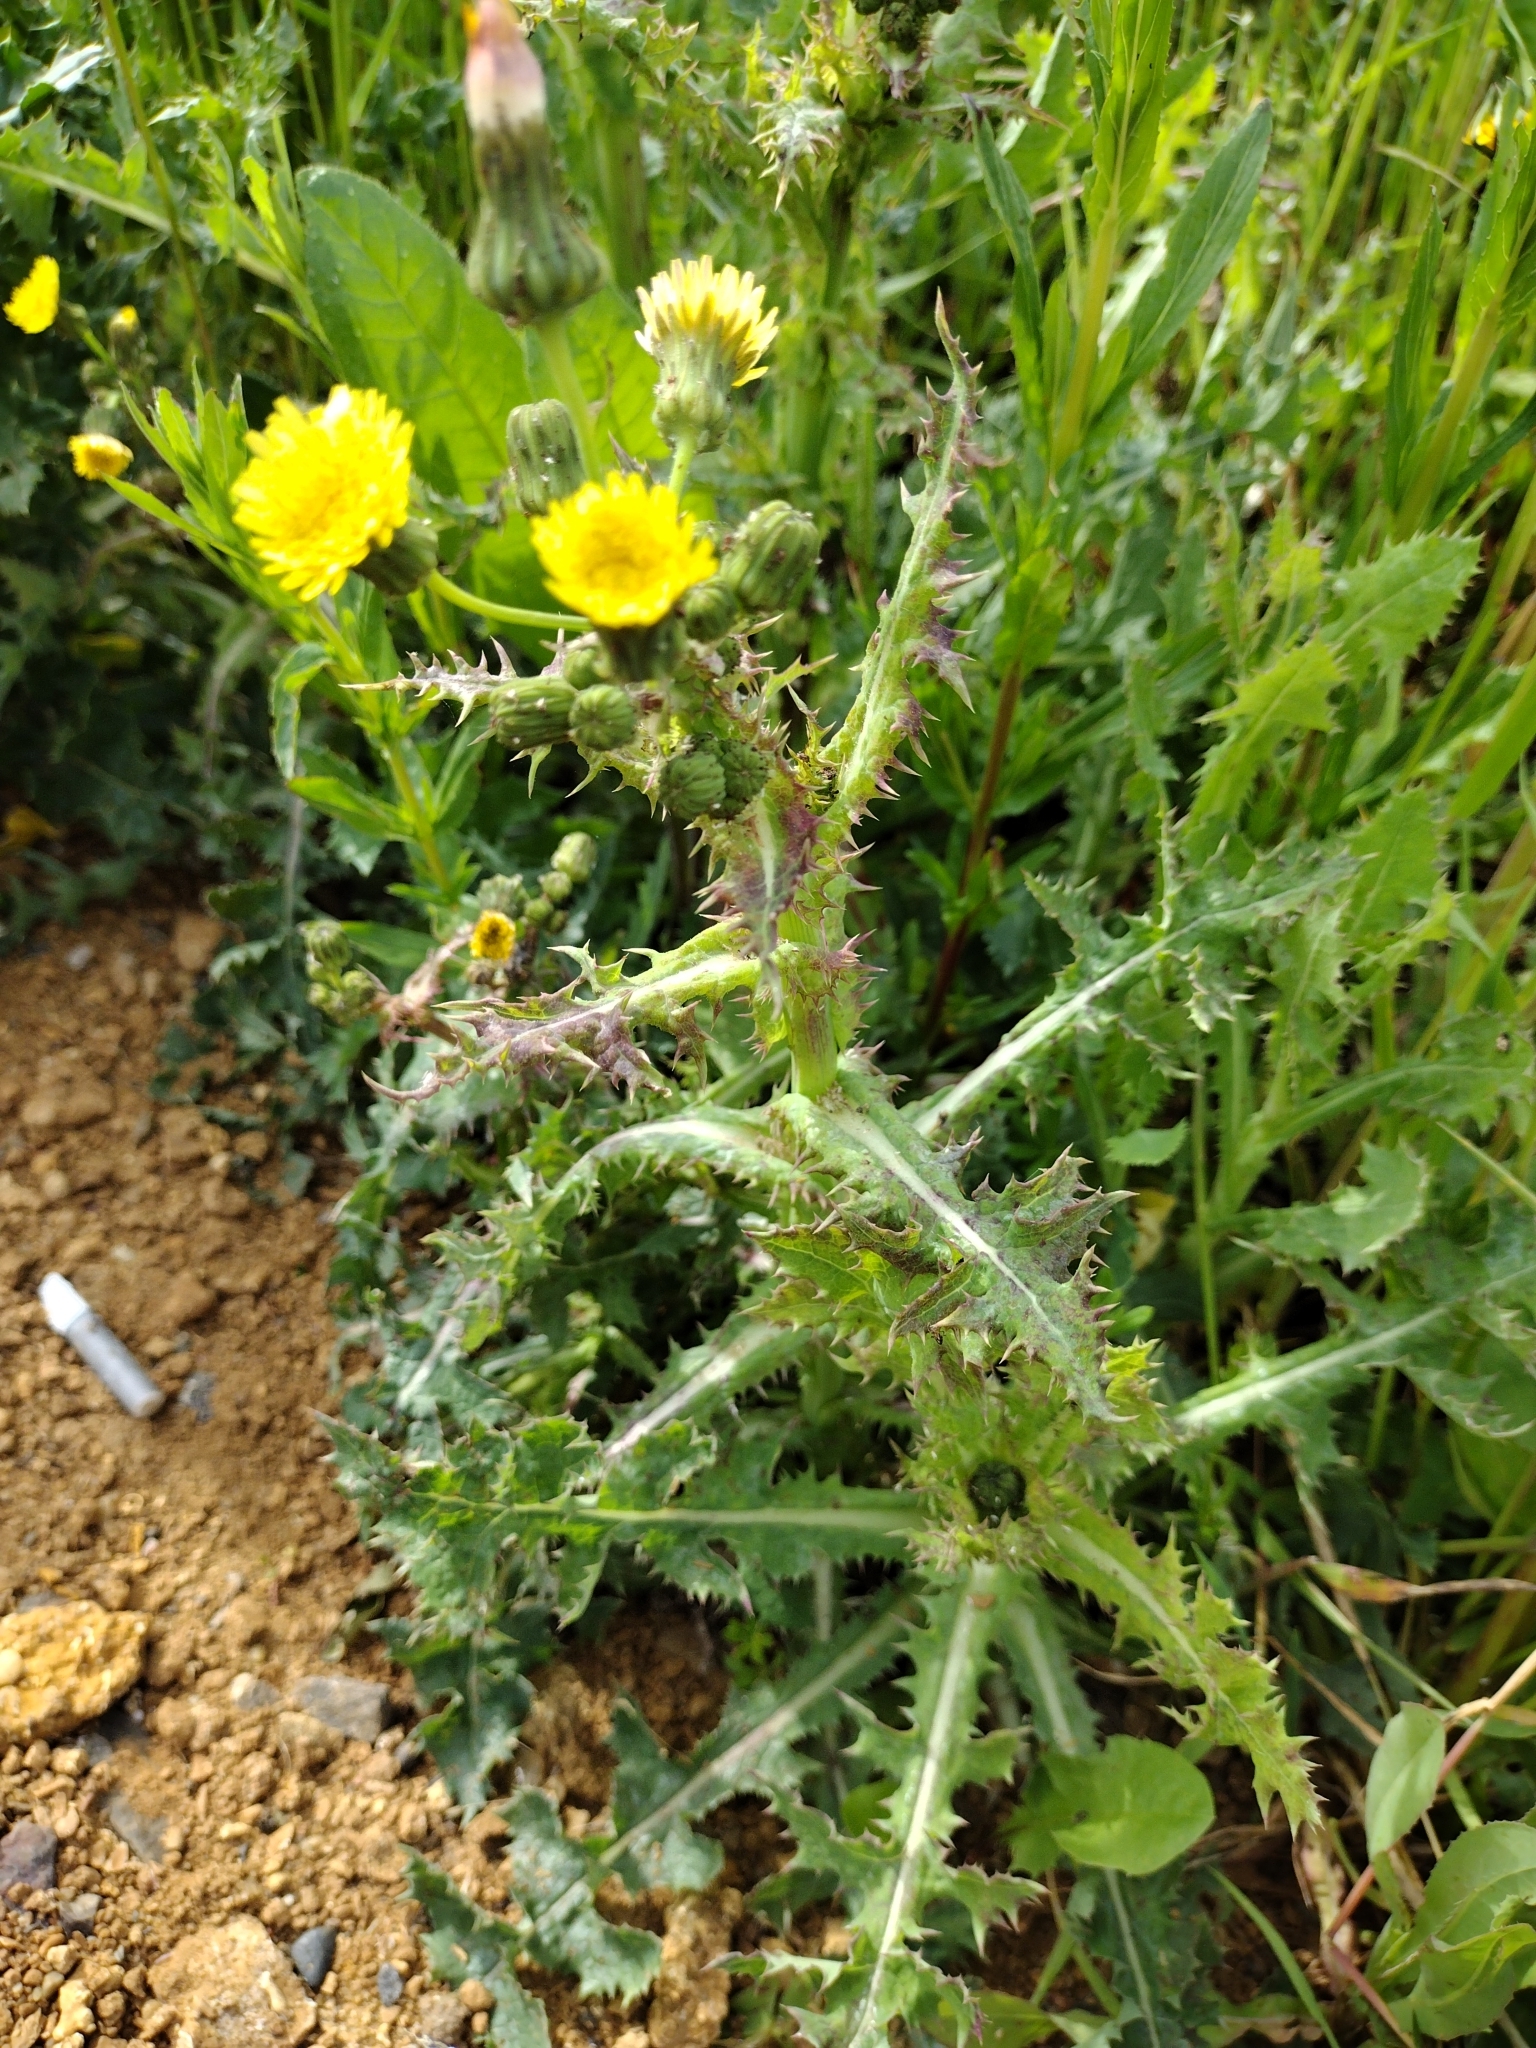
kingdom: Plantae
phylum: Tracheophyta
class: Magnoliopsida
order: Asterales
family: Asteraceae
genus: Sonchus
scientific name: Sonchus asper
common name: Prickly sow-thistle
